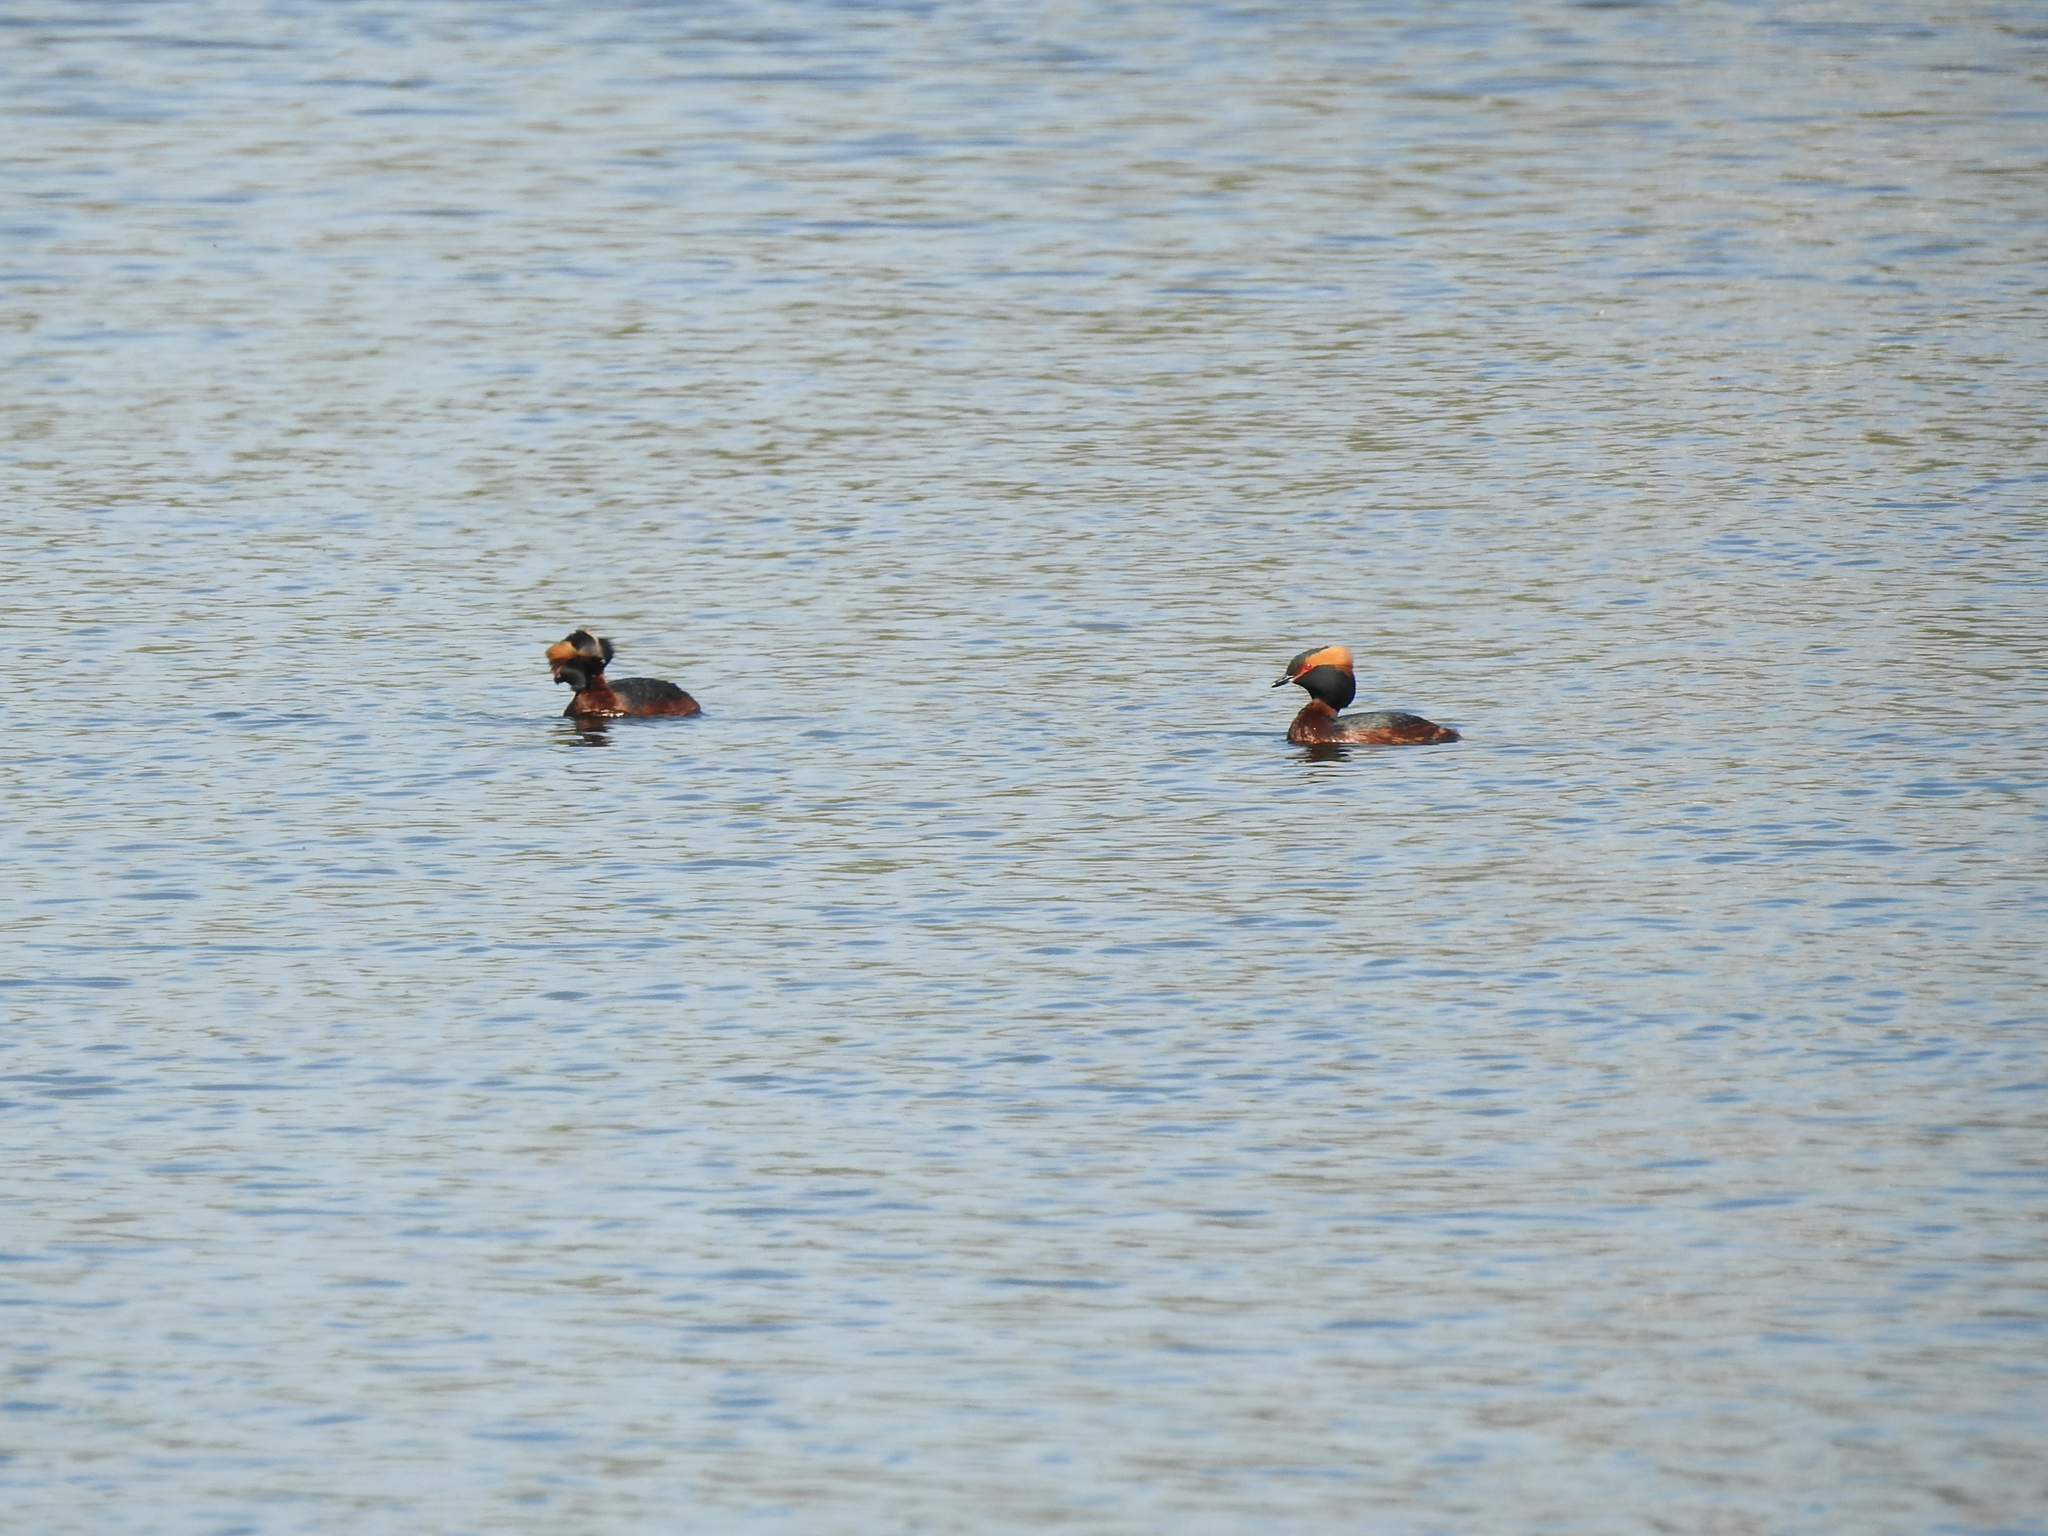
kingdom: Animalia
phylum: Chordata
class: Aves
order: Podicipediformes
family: Podicipedidae
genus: Podiceps
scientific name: Podiceps auritus
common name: Horned grebe
